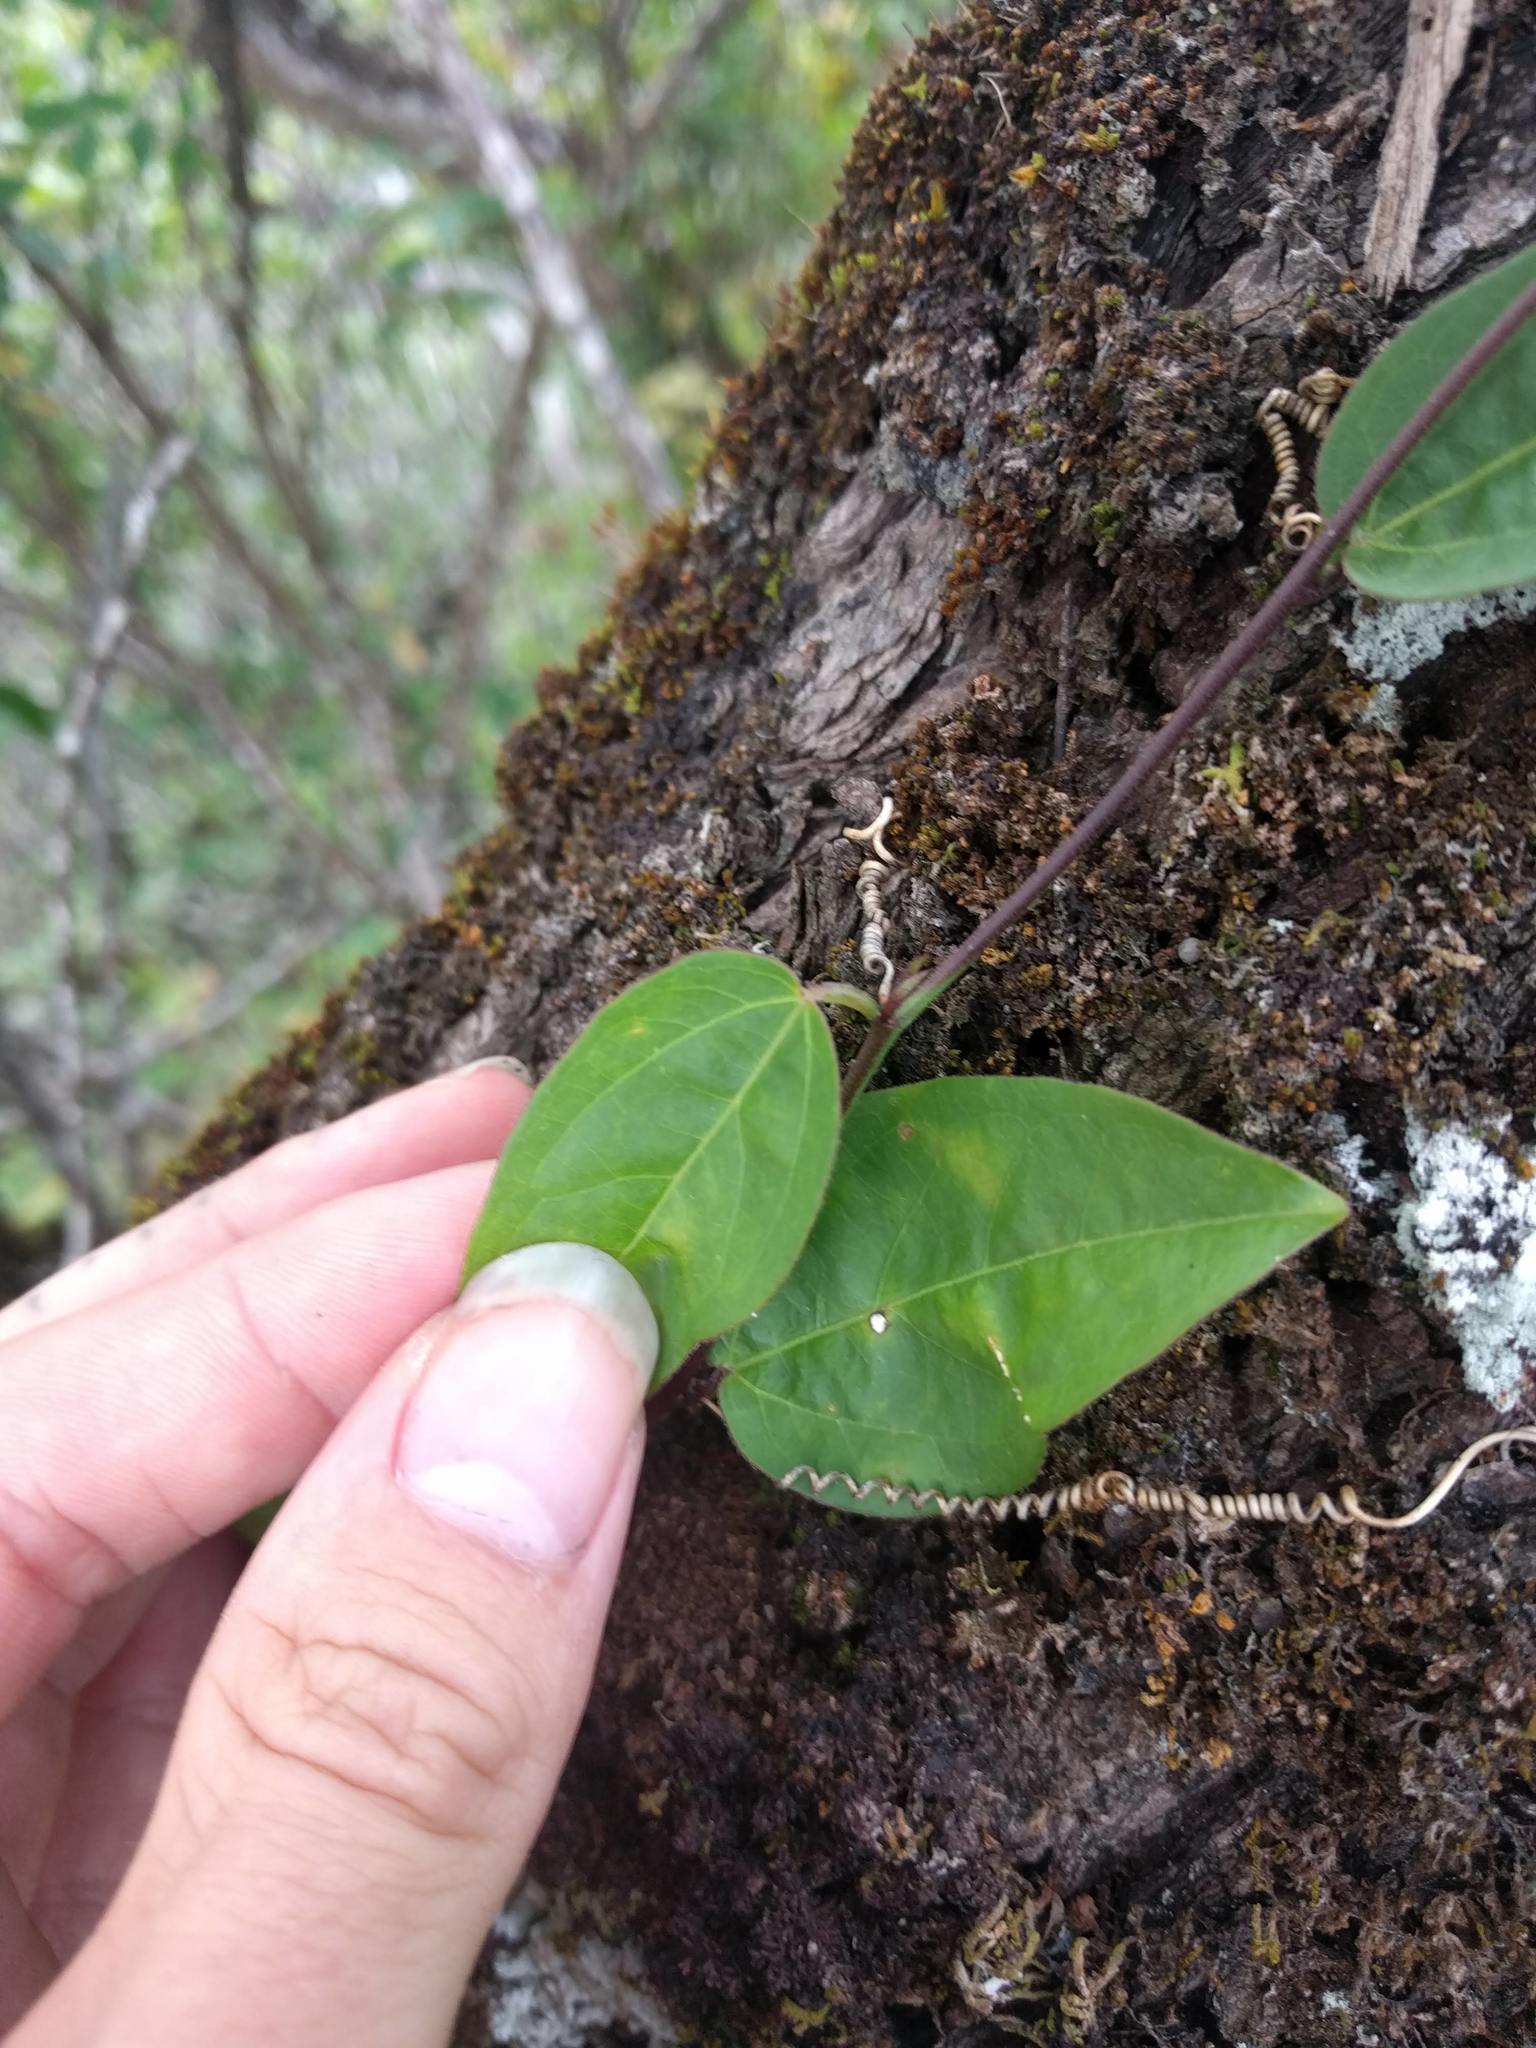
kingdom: Plantae
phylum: Tracheophyta
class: Magnoliopsida
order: Malpighiales
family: Passifloraceae
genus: Passiflora
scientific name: Passiflora pallida
